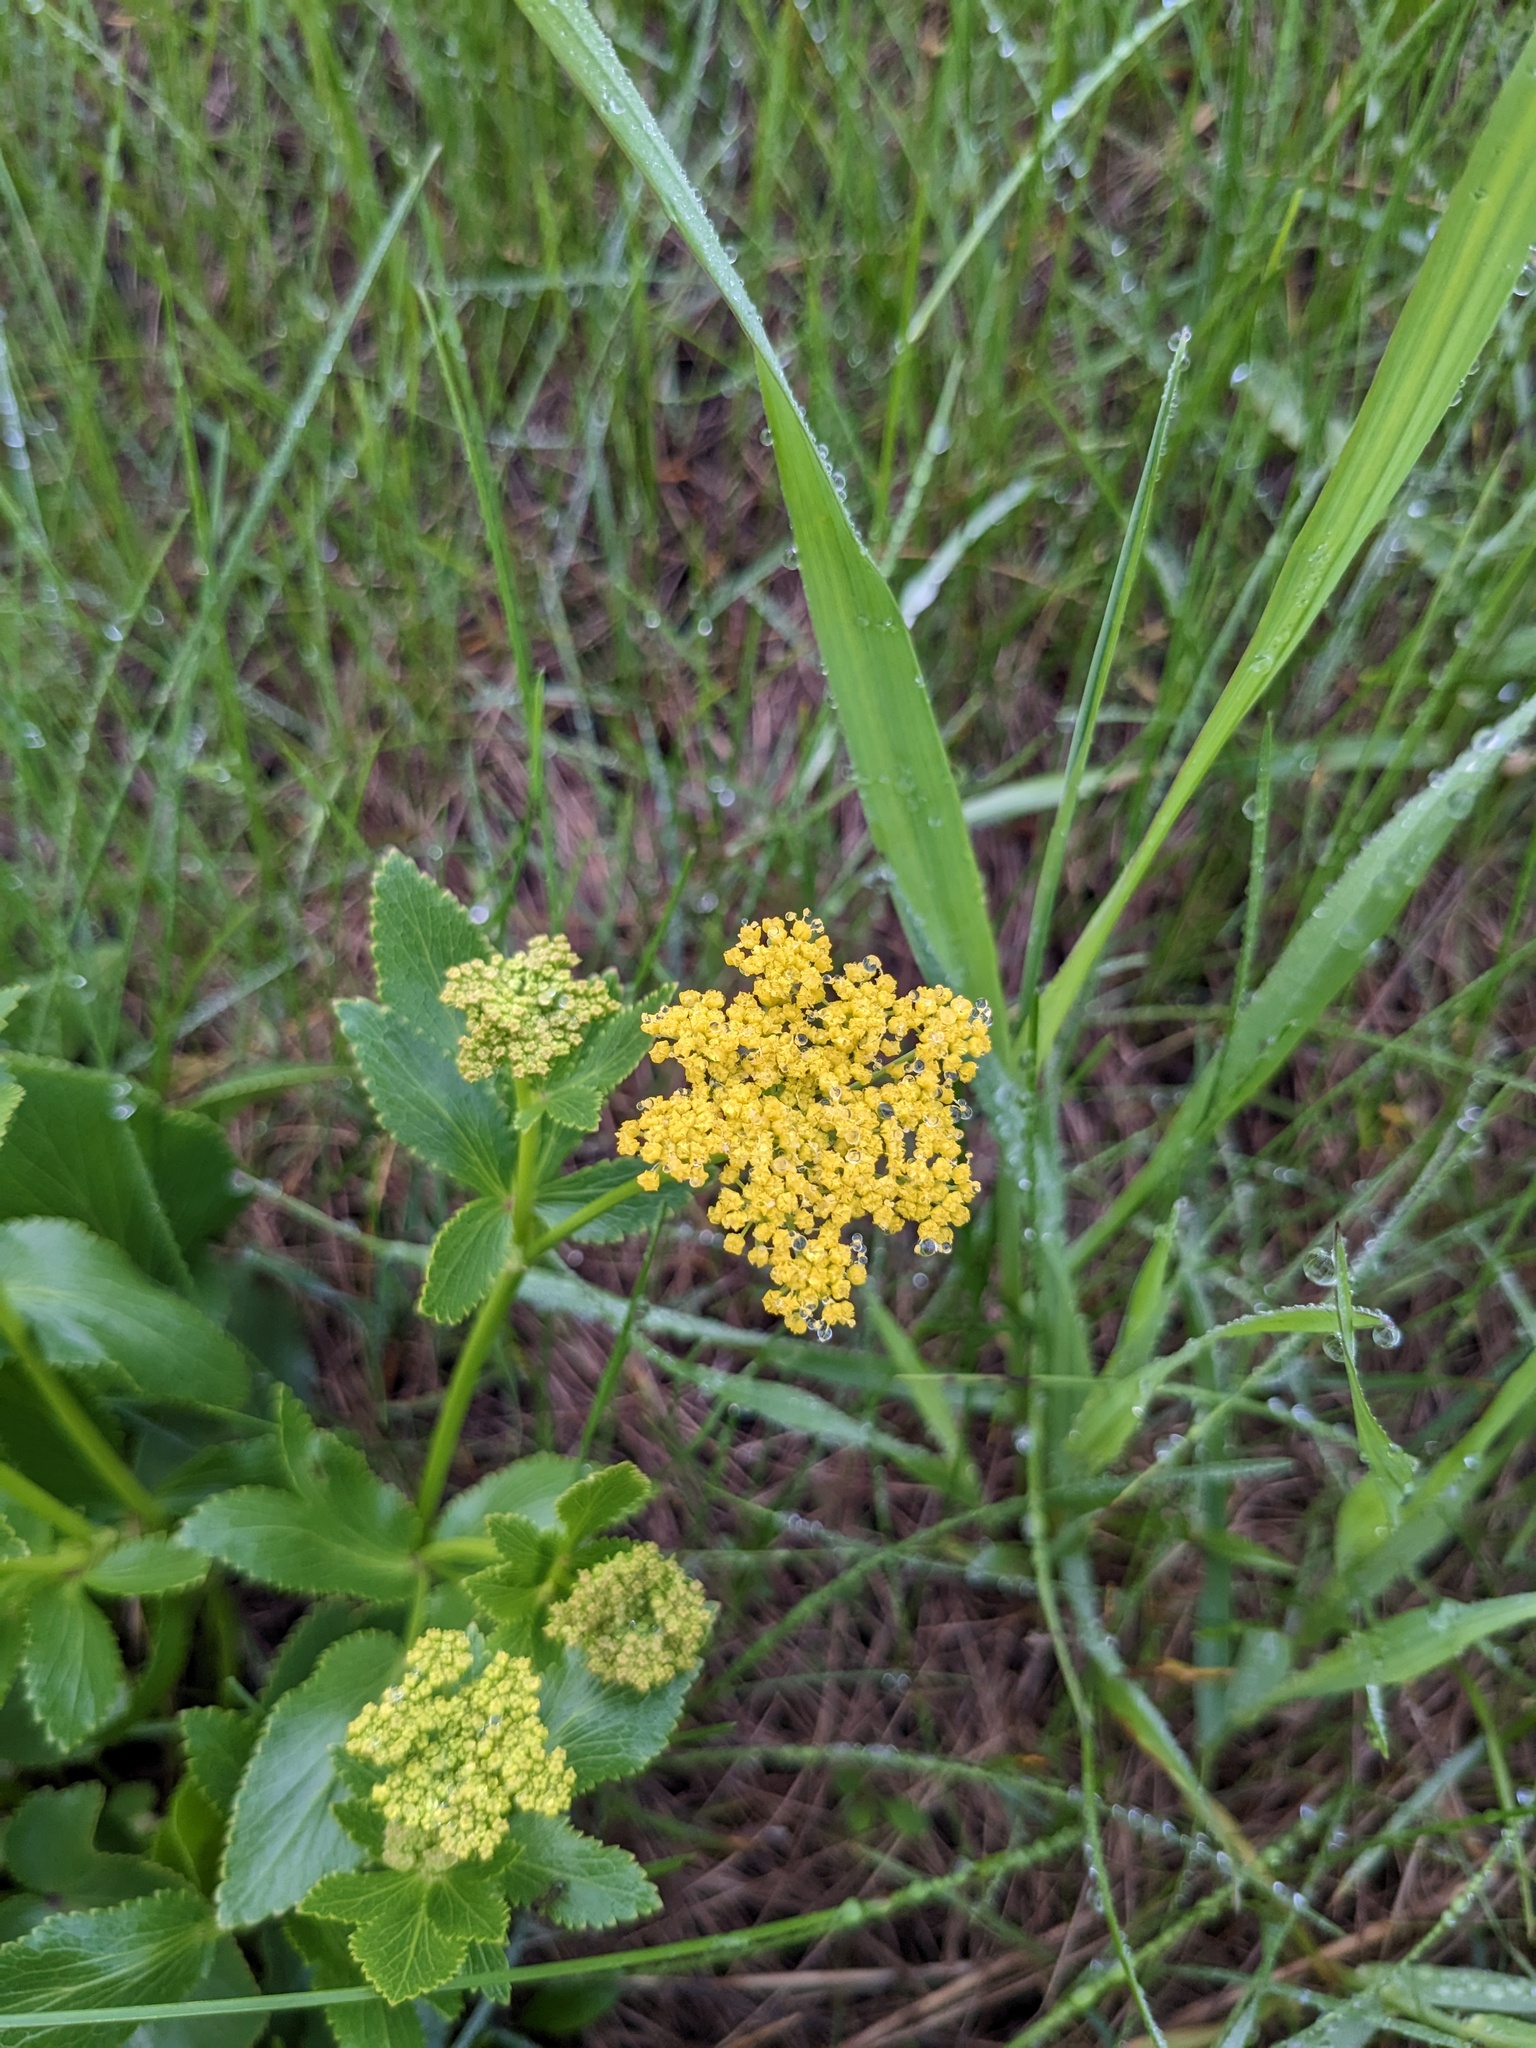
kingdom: Plantae
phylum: Tracheophyta
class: Magnoliopsida
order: Apiales
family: Apiaceae
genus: Zizia
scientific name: Zizia aptera
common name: Heart-leaved alexanders
